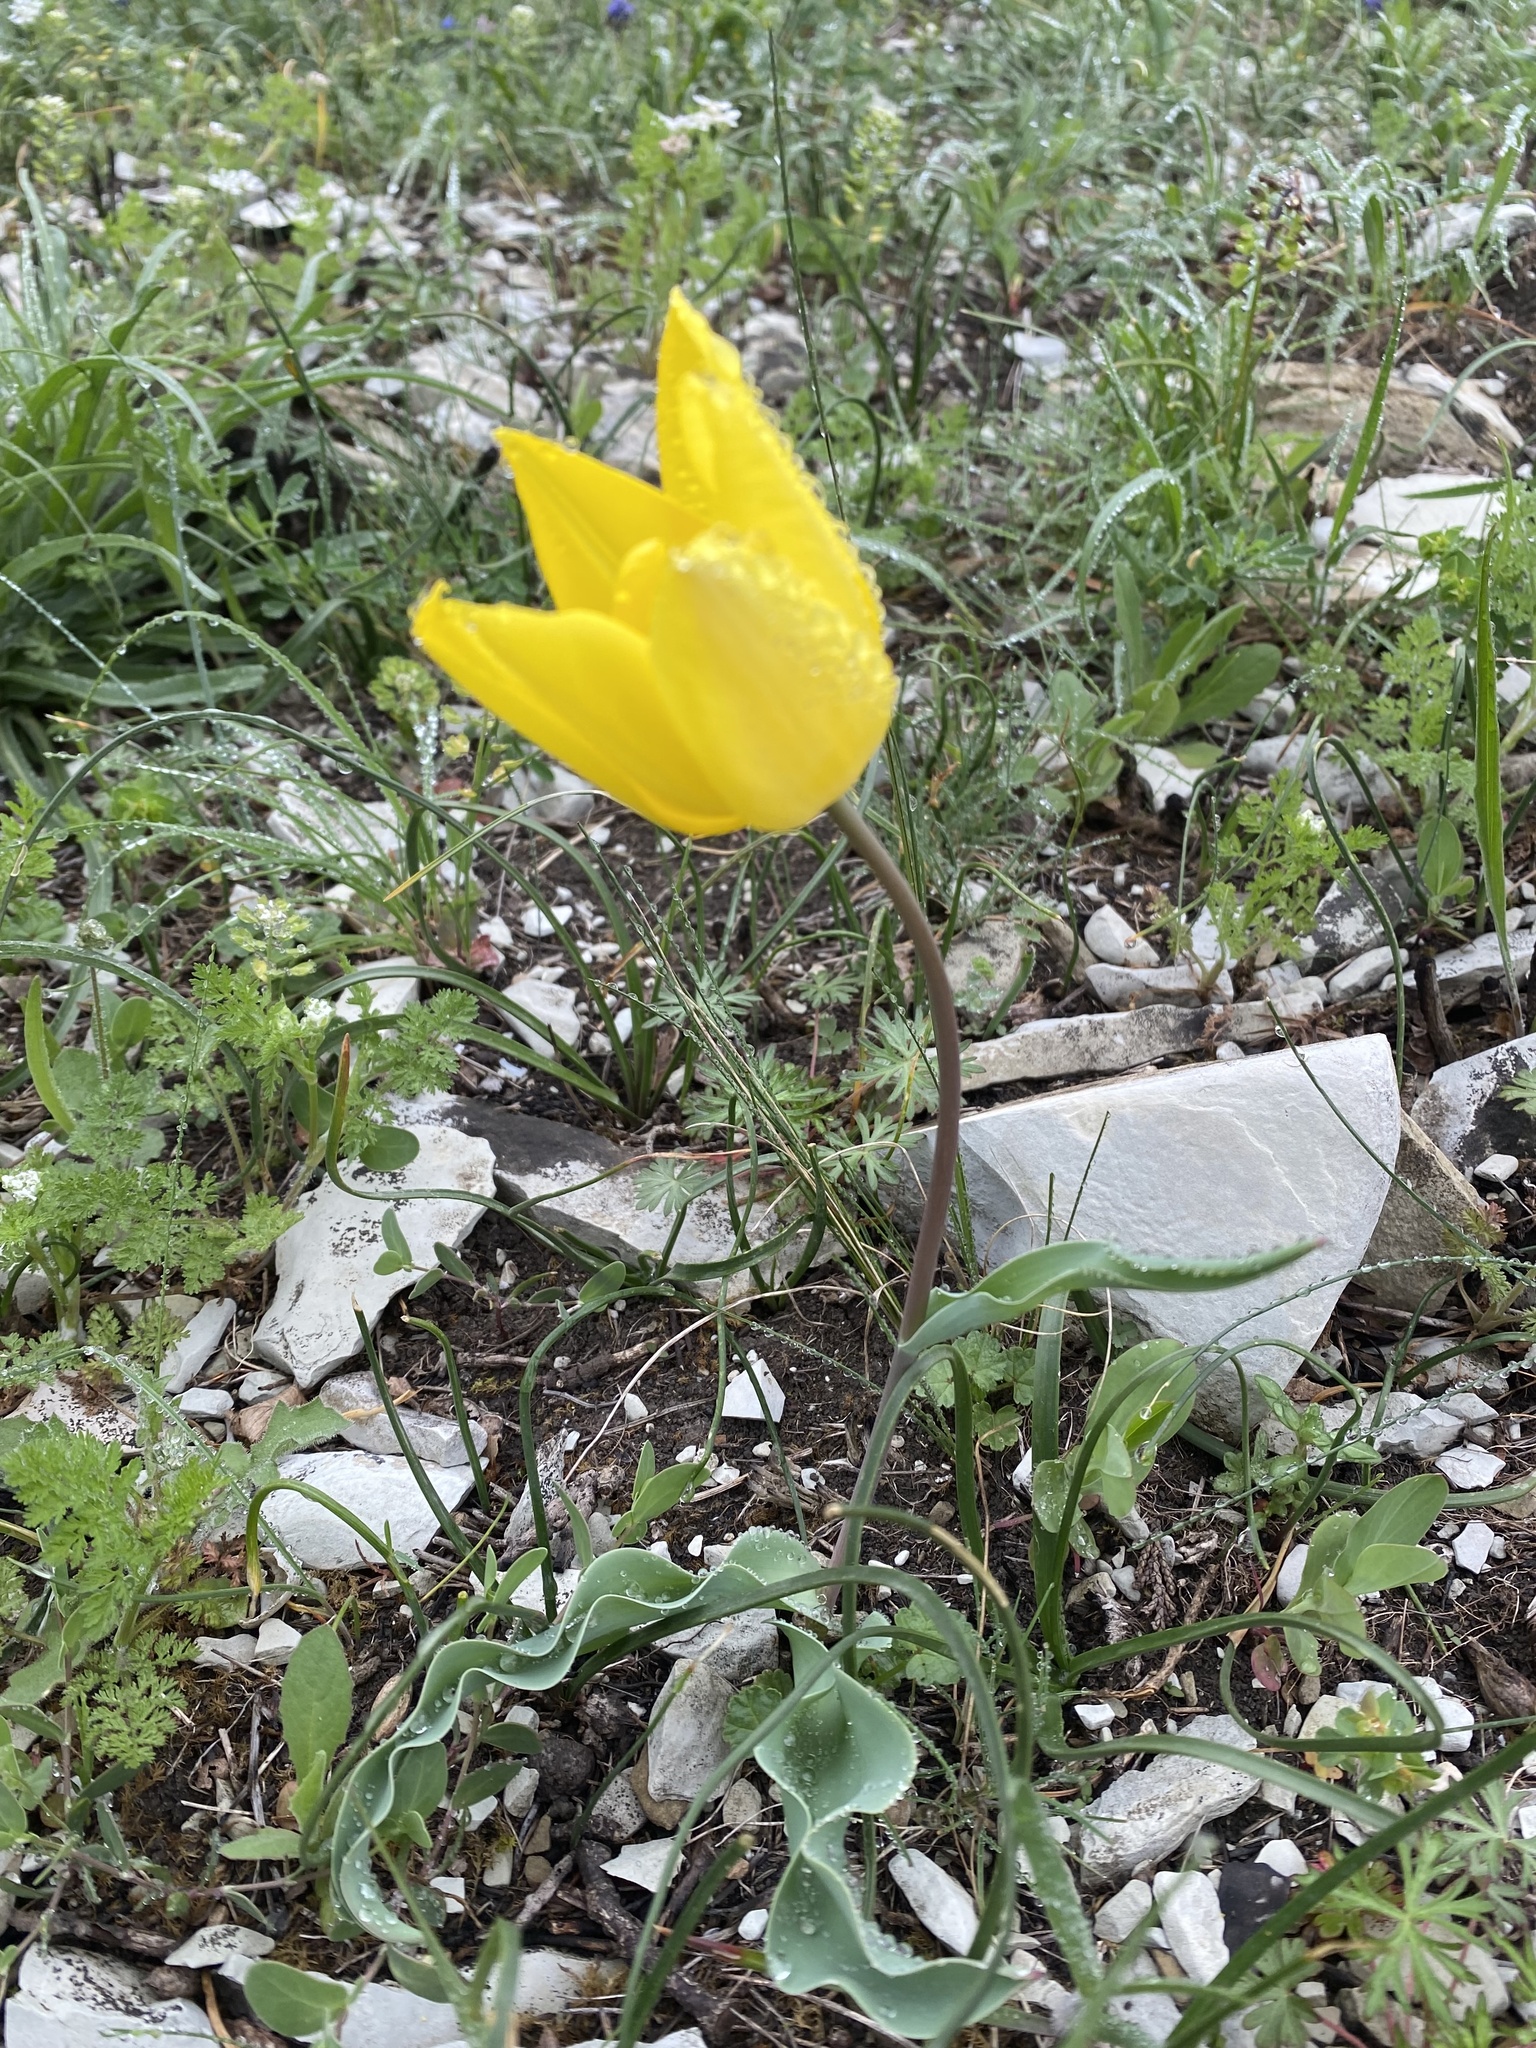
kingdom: Plantae
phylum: Tracheophyta
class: Liliopsida
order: Liliales
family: Liliaceae
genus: Tulipa
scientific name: Tulipa suaveolens
